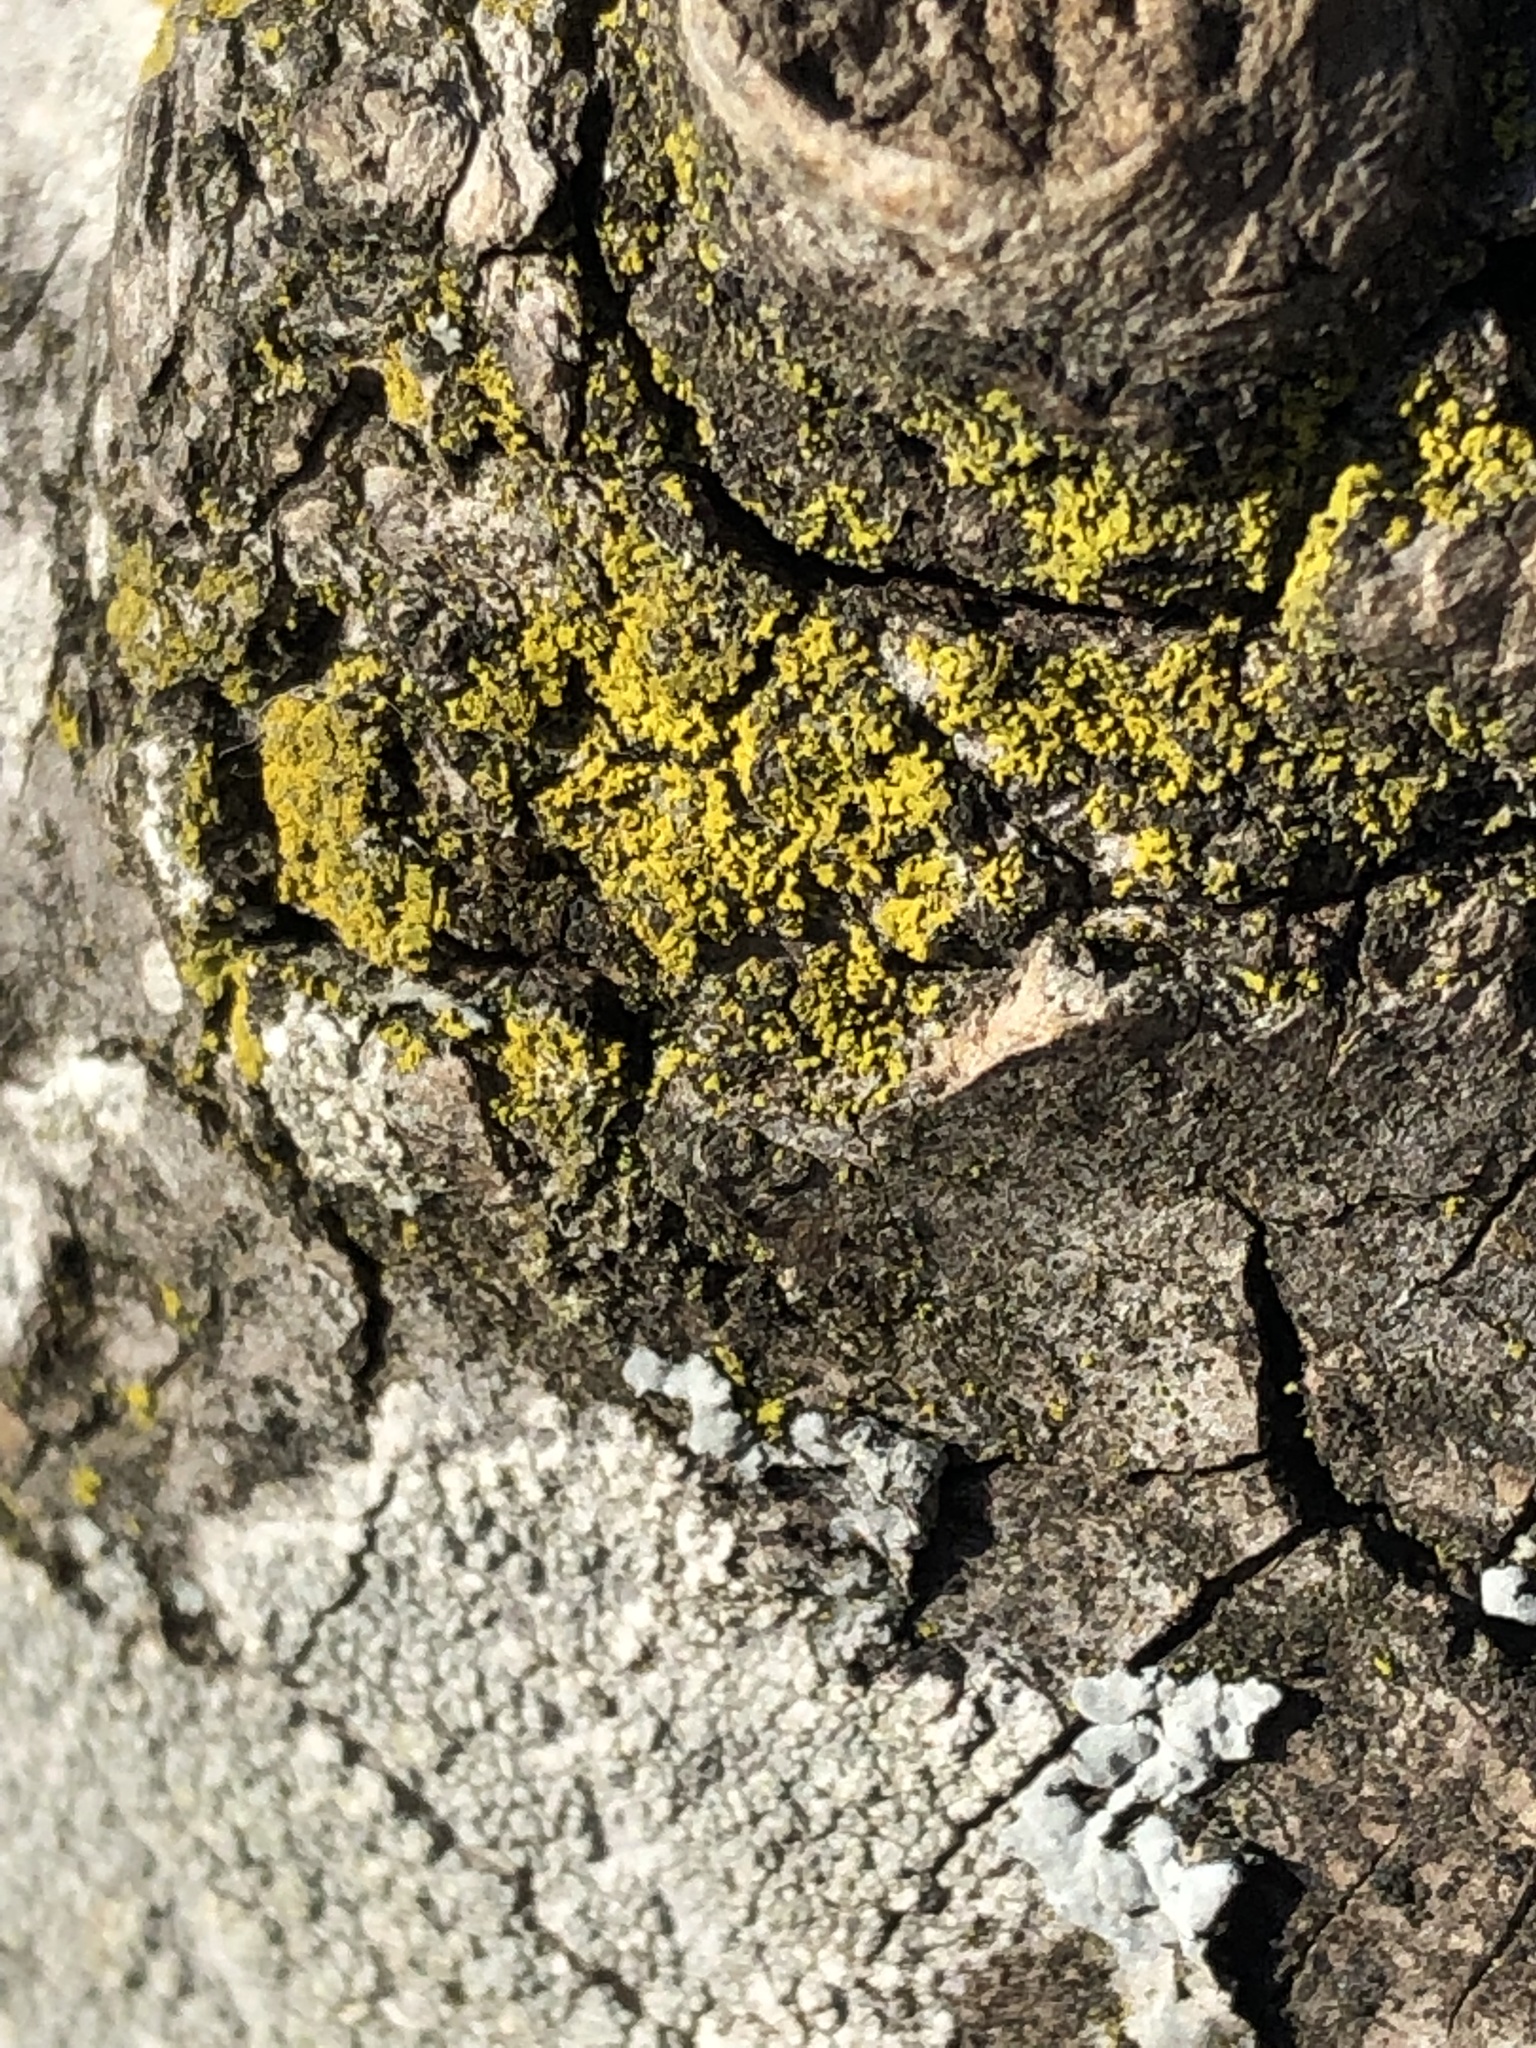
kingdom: Fungi
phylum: Ascomycota
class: Candelariomycetes
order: Candelariales
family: Candelariaceae
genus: Candelaria
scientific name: Candelaria concolor
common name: Candleflame lichen
